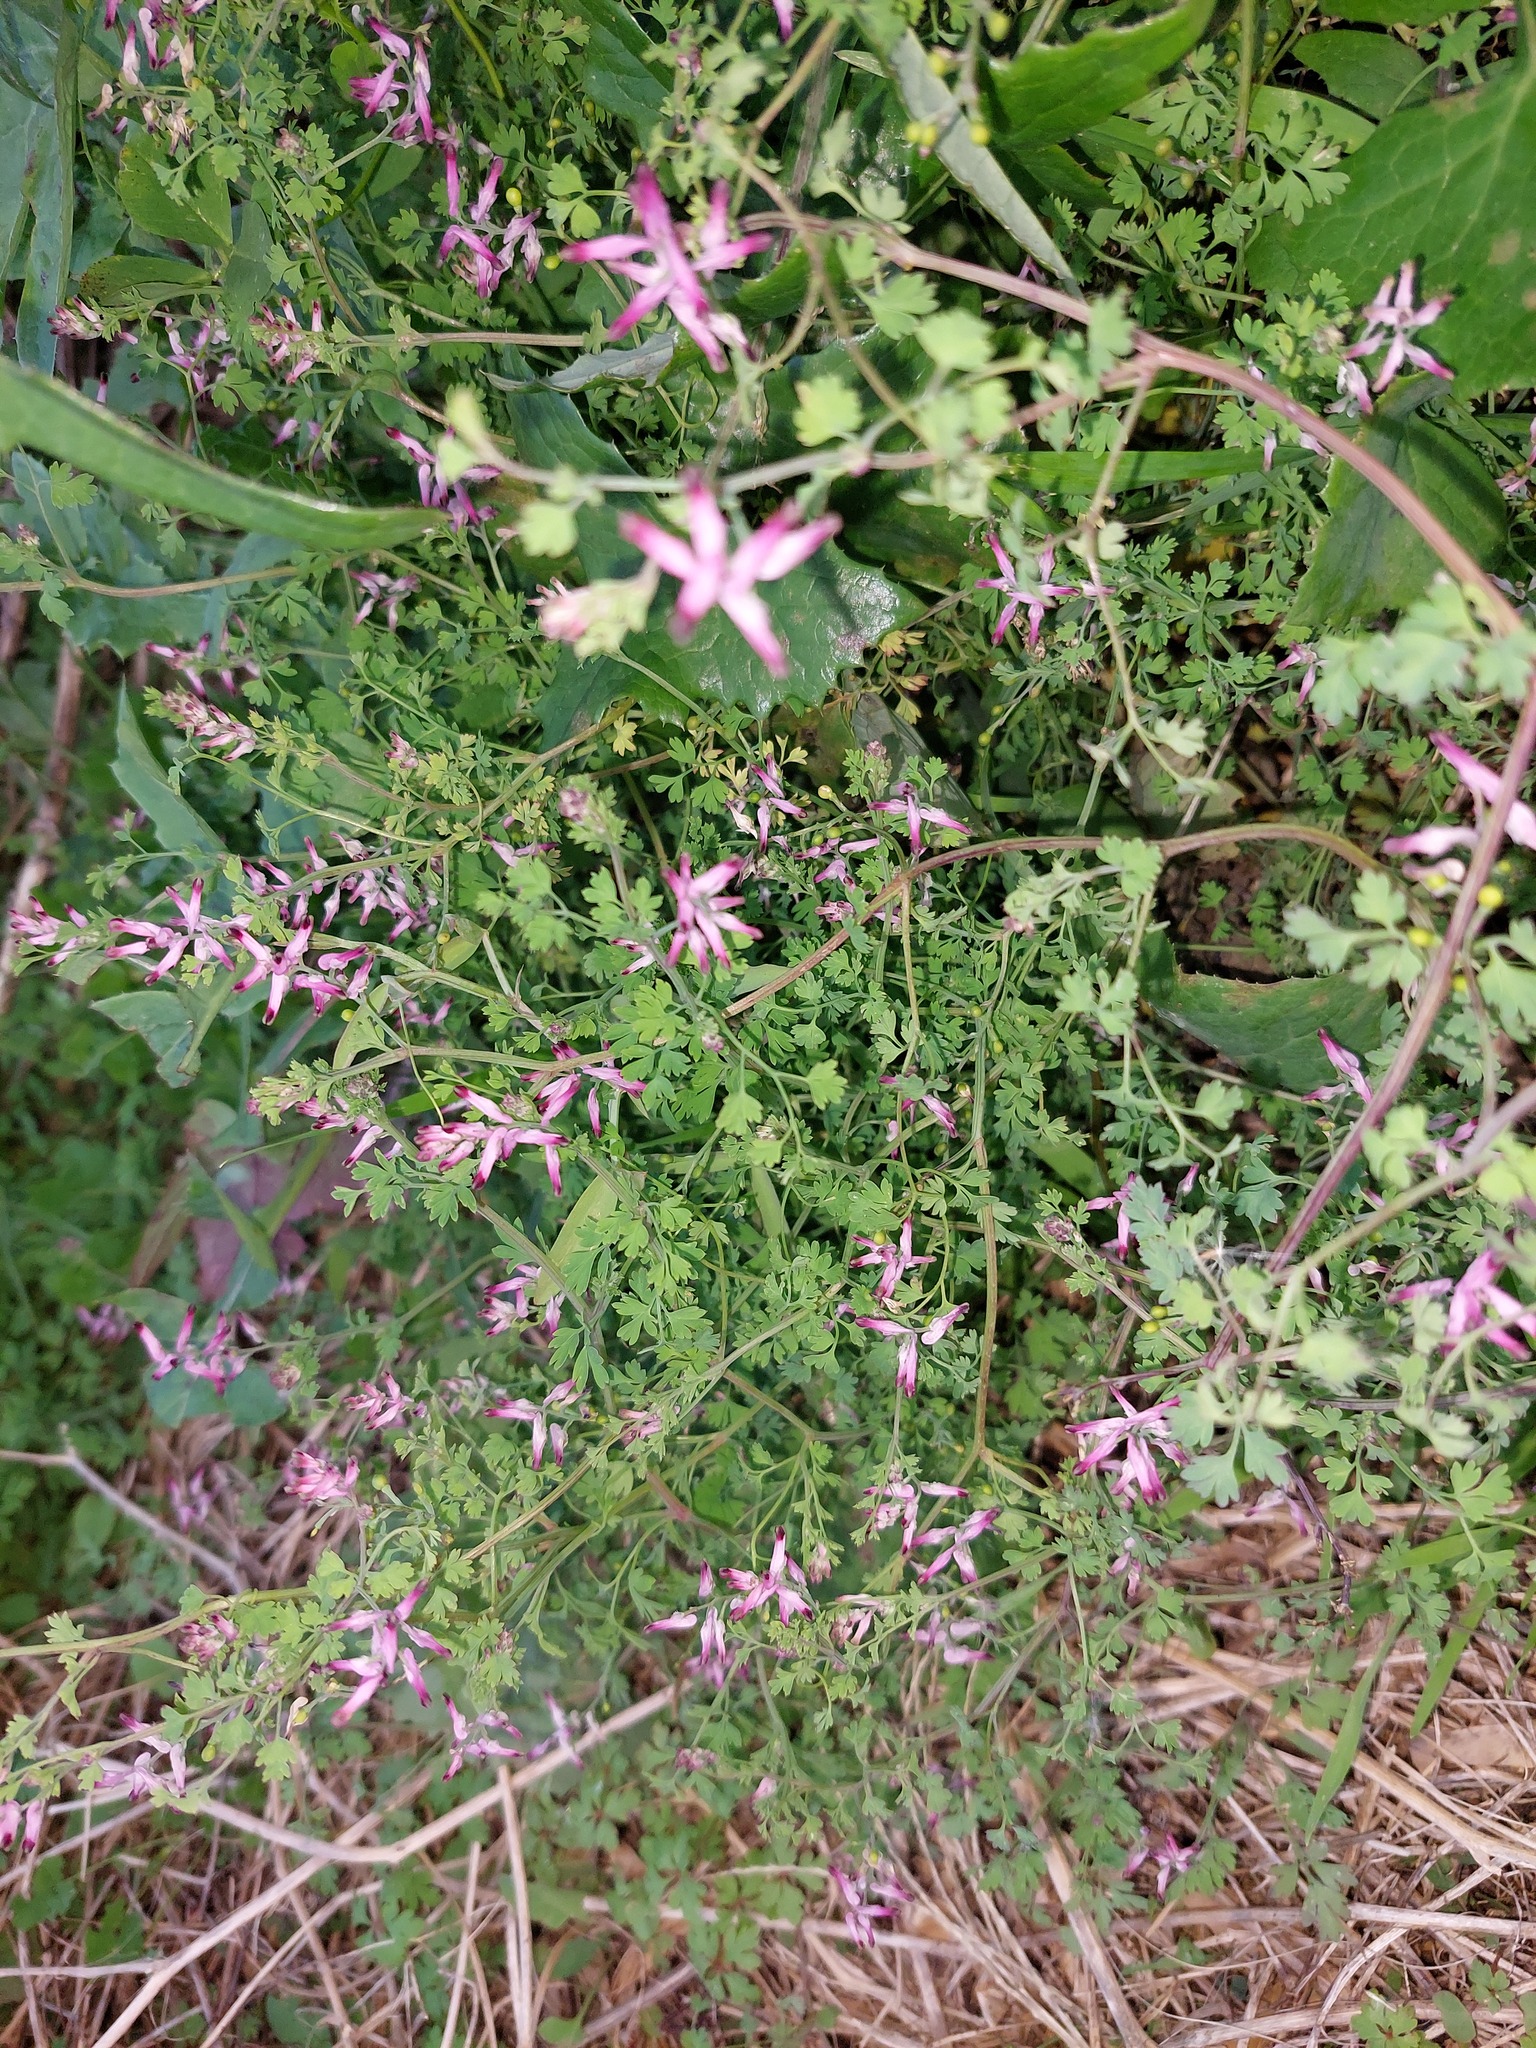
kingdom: Plantae
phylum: Tracheophyta
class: Magnoliopsida
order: Ranunculales
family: Papaveraceae
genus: Fumaria
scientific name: Fumaria muralis
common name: Common ramping-fumitory
